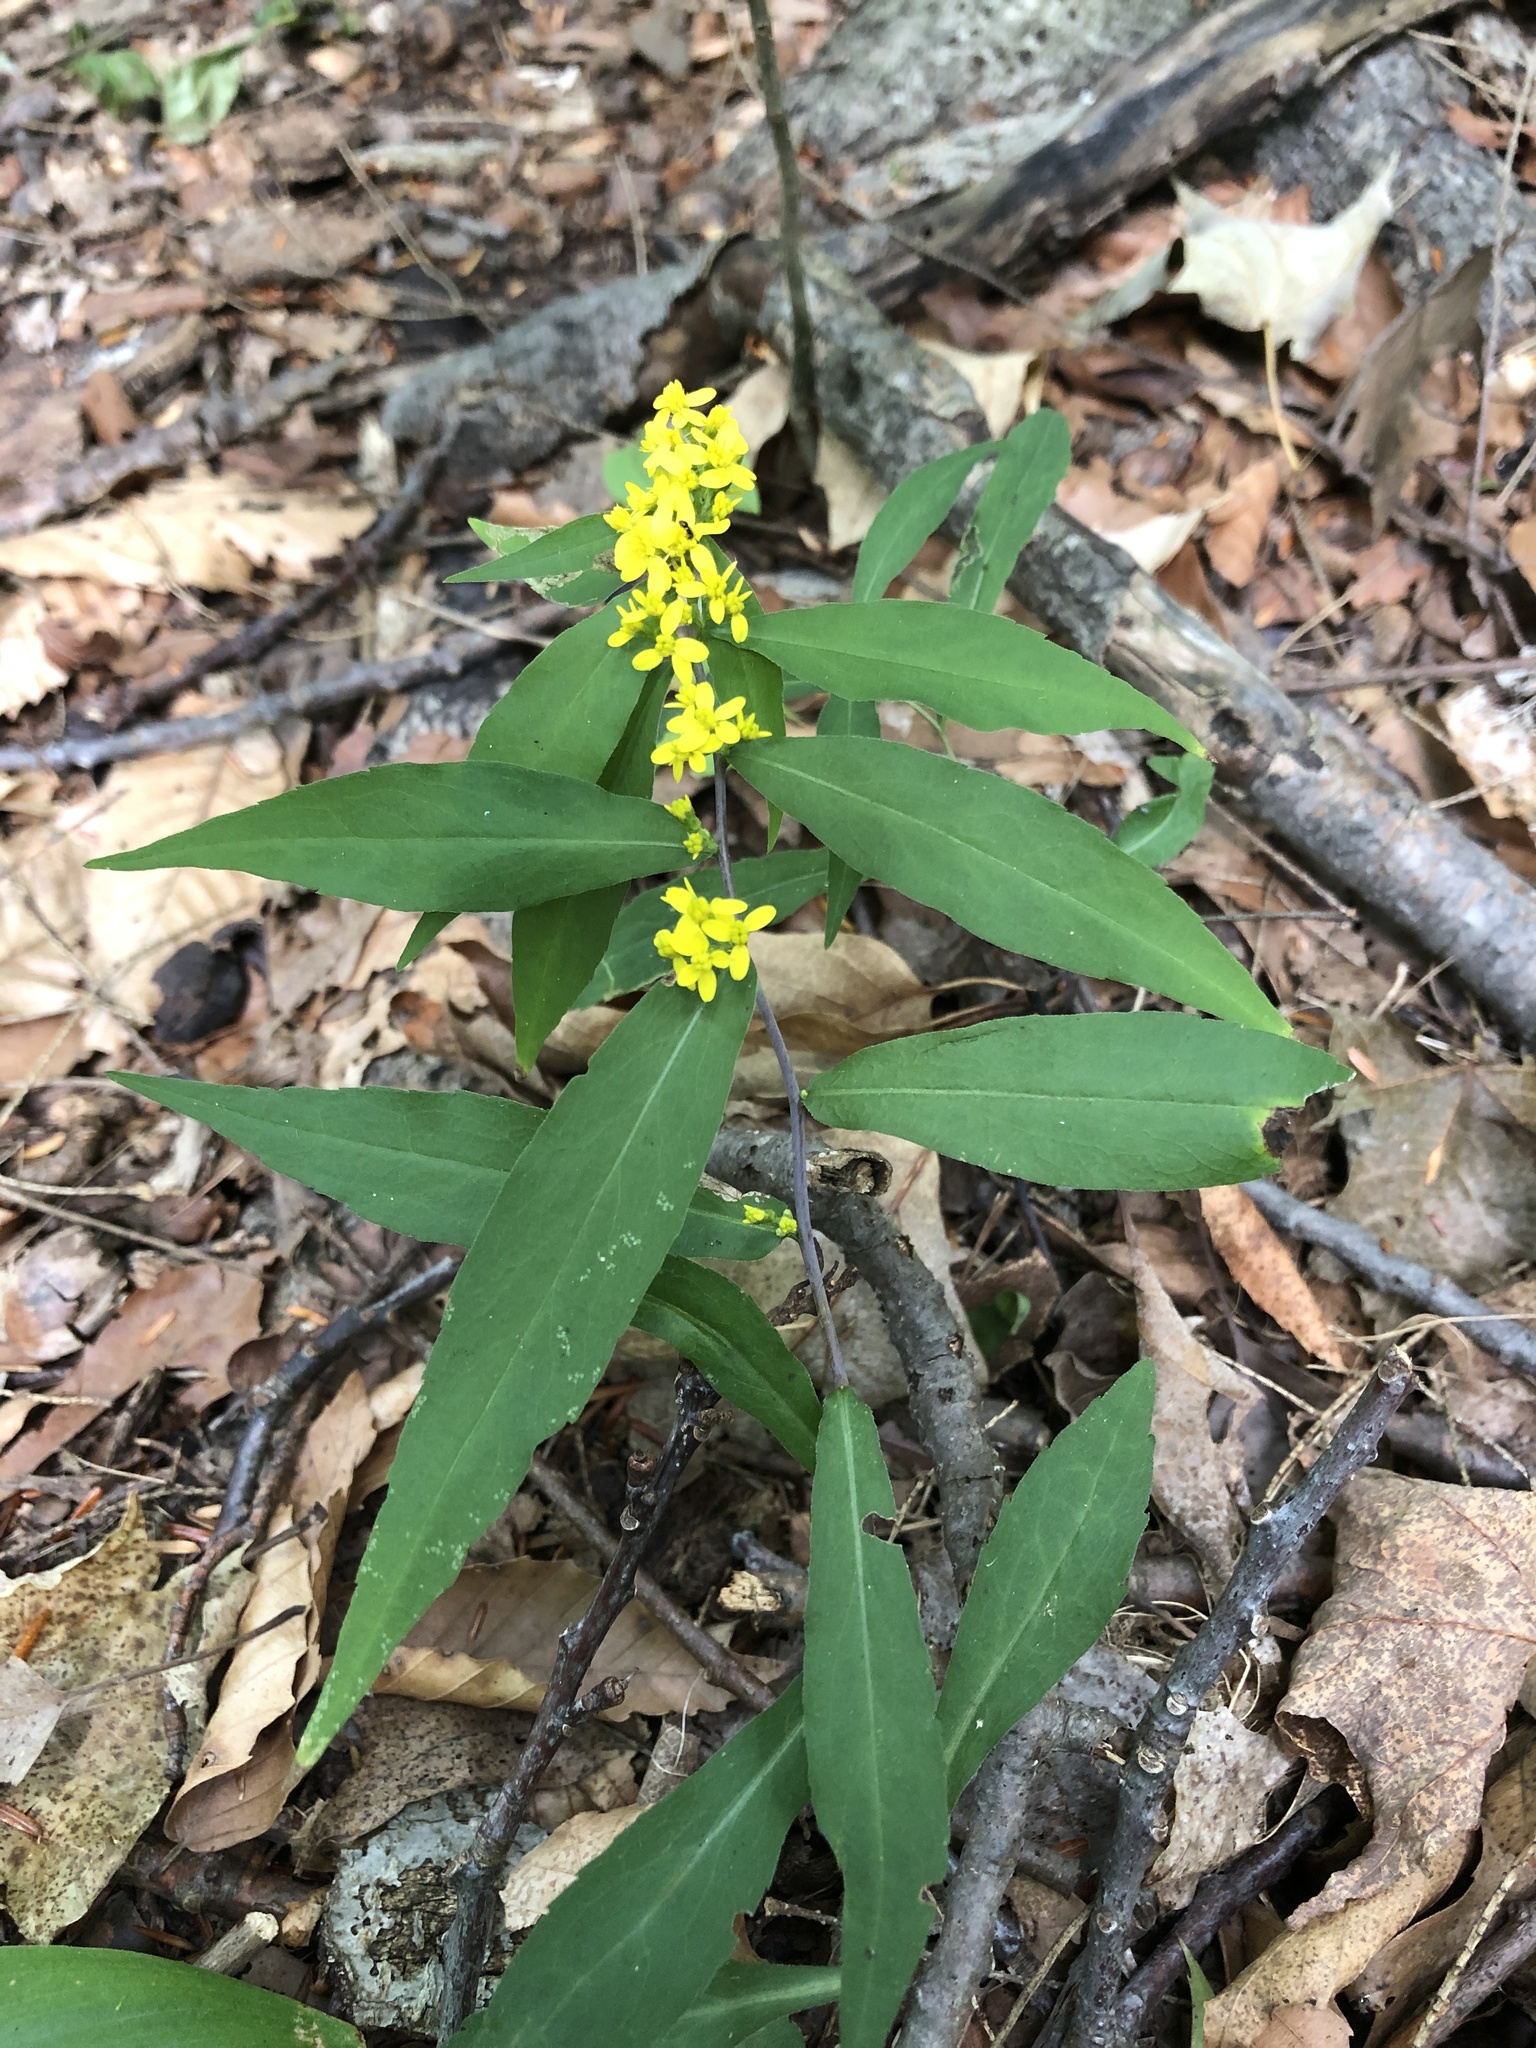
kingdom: Plantae
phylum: Tracheophyta
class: Magnoliopsida
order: Asterales
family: Asteraceae
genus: Solidago
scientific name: Solidago caesia
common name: Woodland goldenrod
